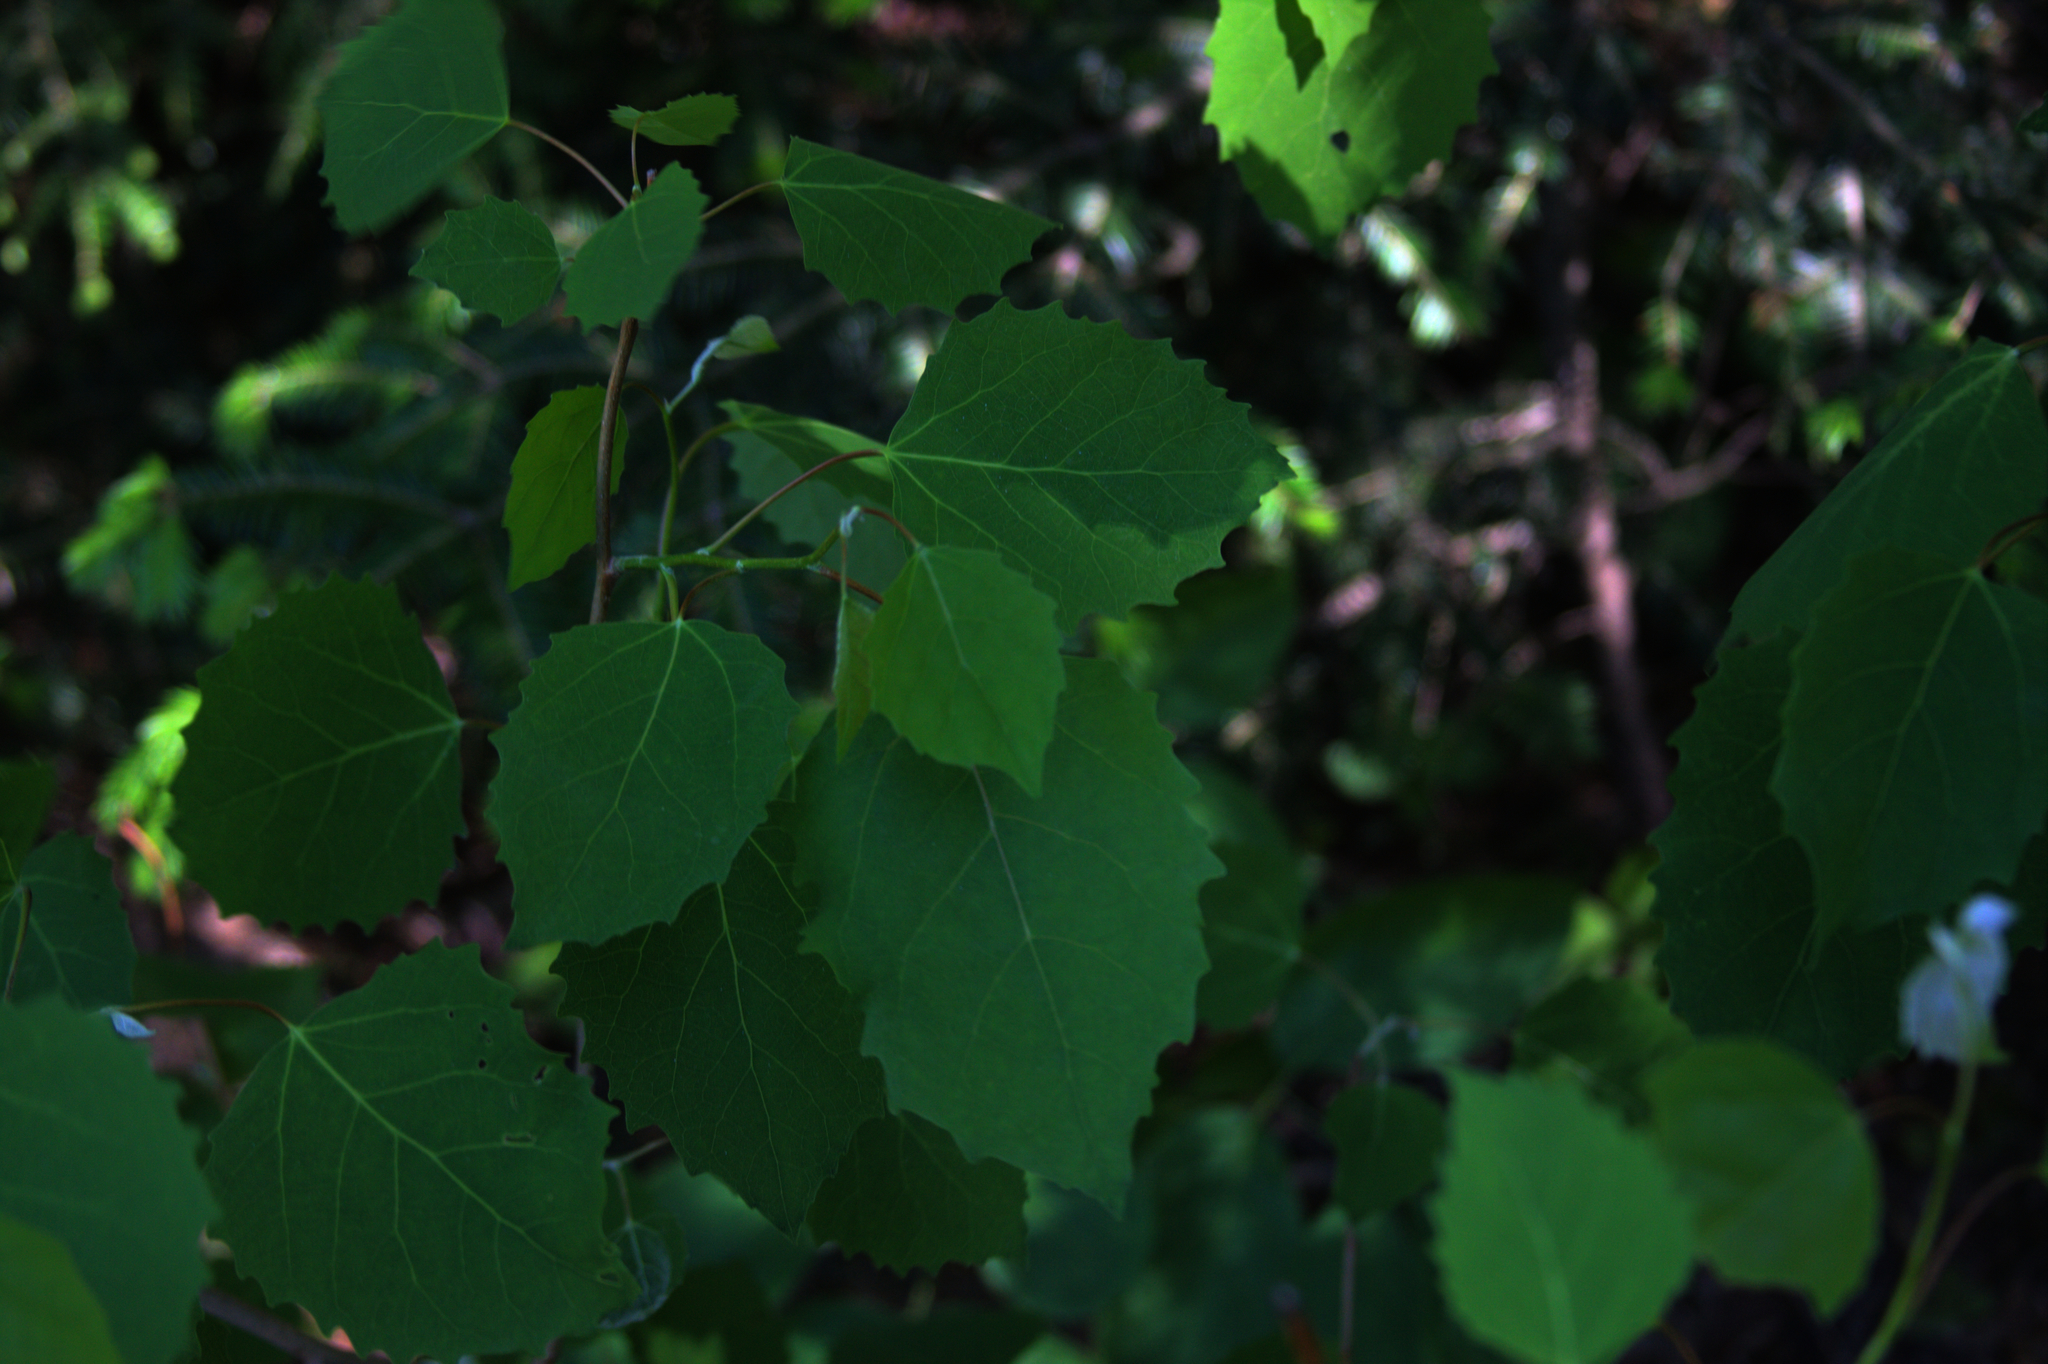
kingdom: Plantae
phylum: Tracheophyta
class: Magnoliopsida
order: Malpighiales
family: Salicaceae
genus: Populus
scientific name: Populus grandidentata
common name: Bigtooth aspen
